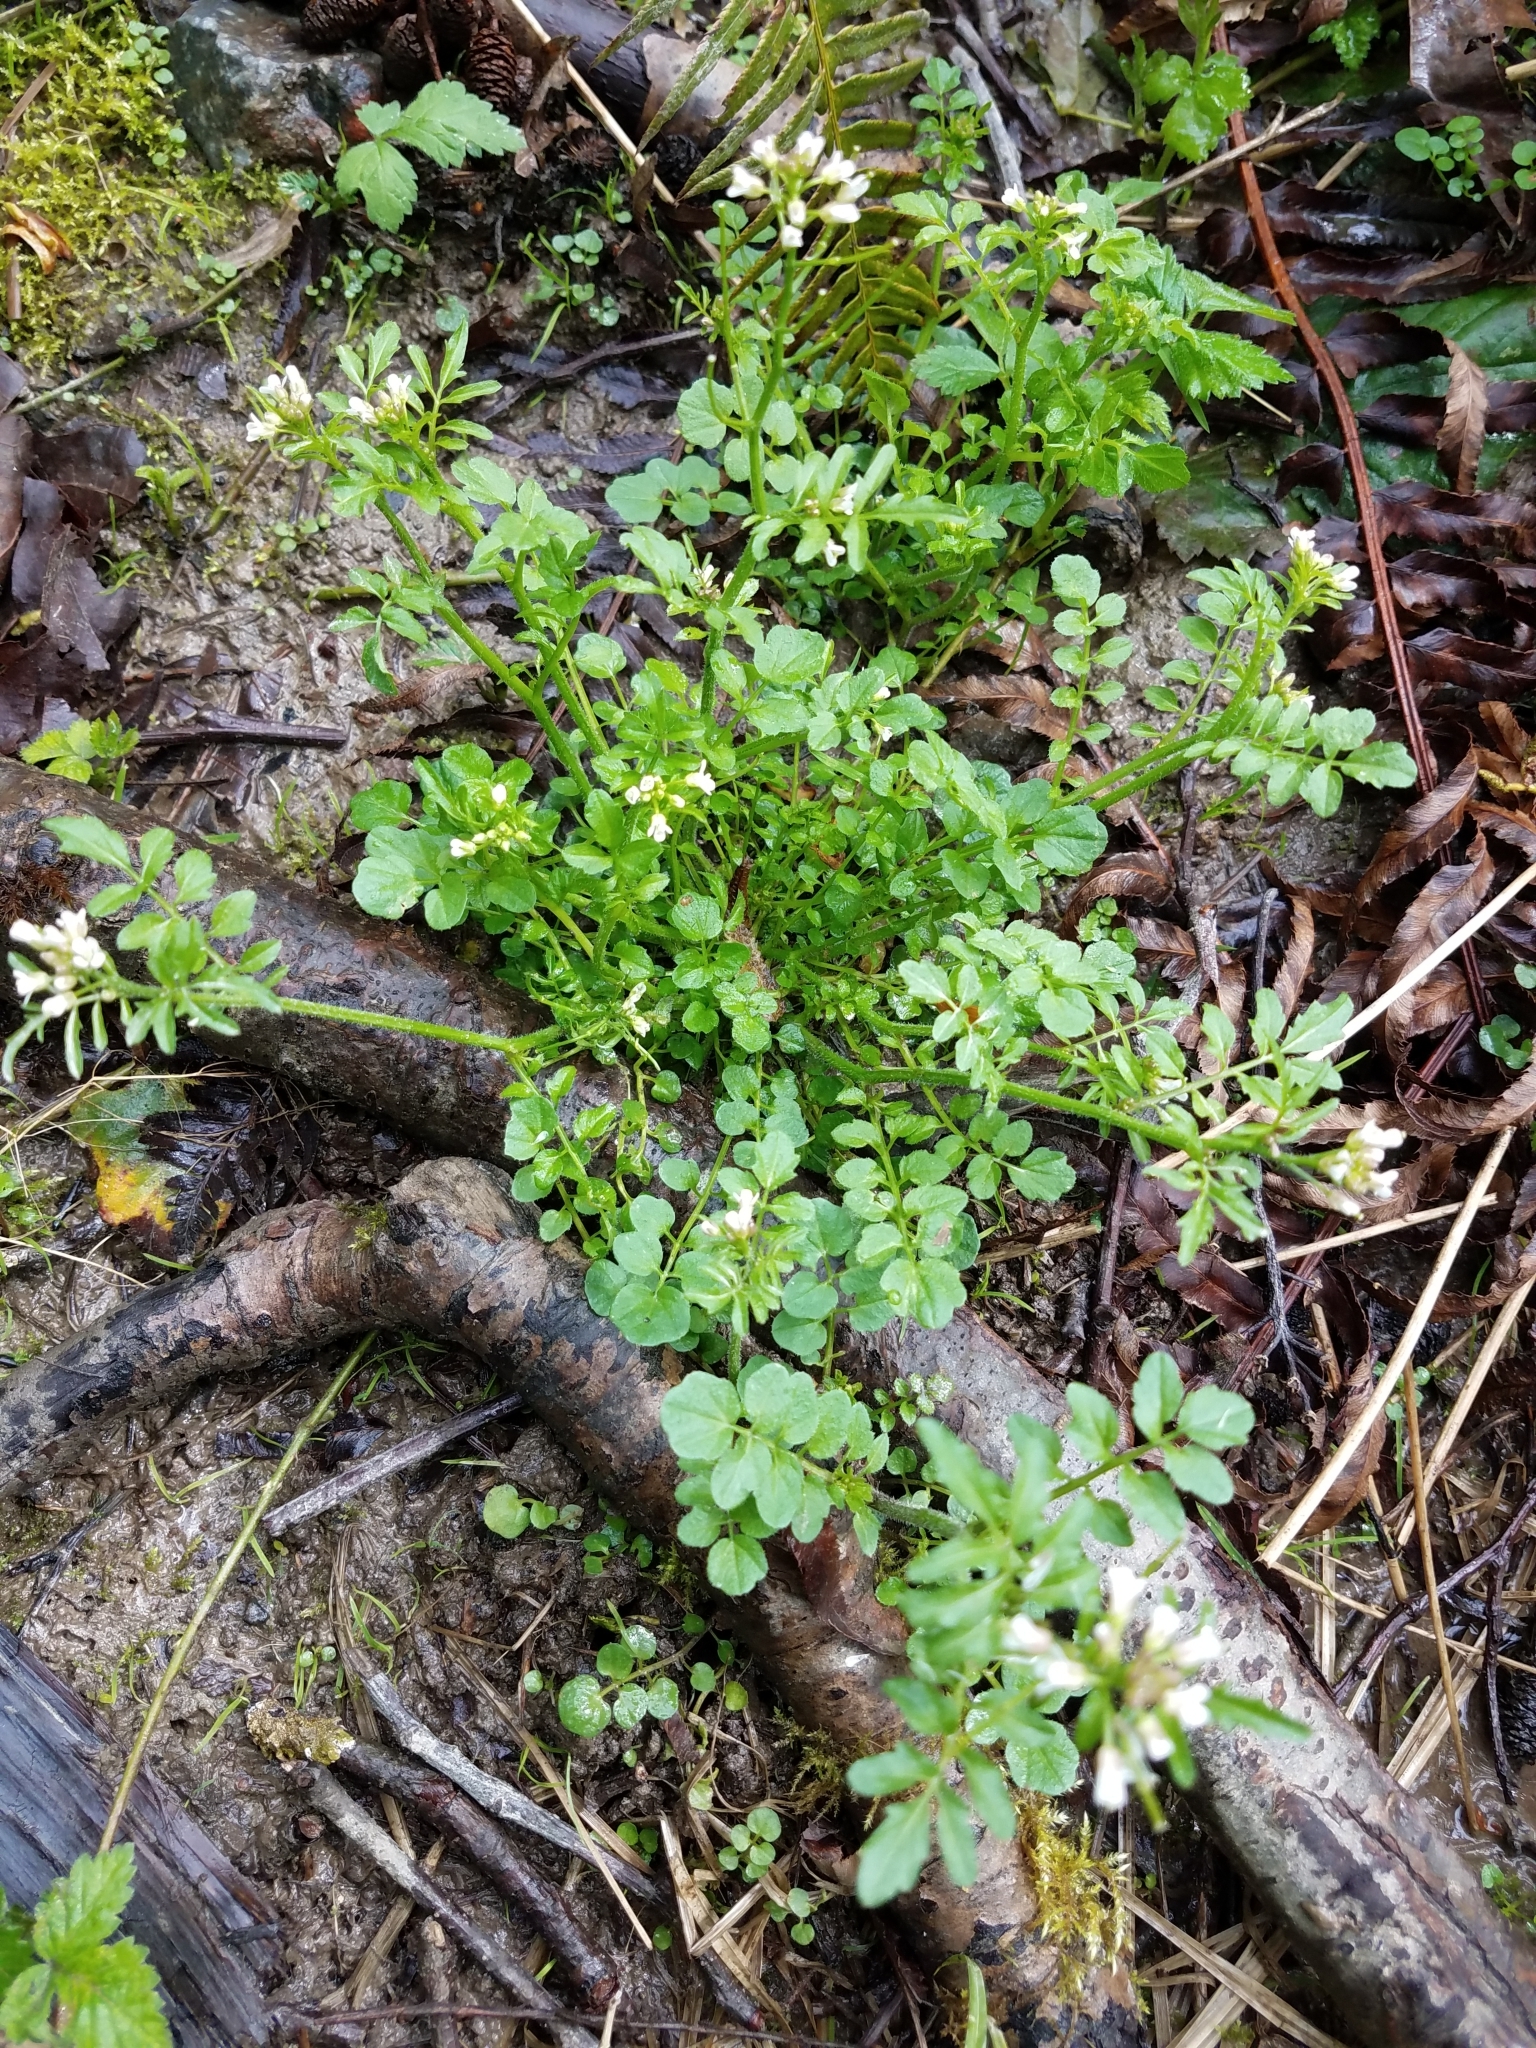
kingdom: Plantae
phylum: Tracheophyta
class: Magnoliopsida
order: Brassicales
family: Brassicaceae
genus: Cardamine
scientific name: Cardamine flexuosa
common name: Woodland bittercress
